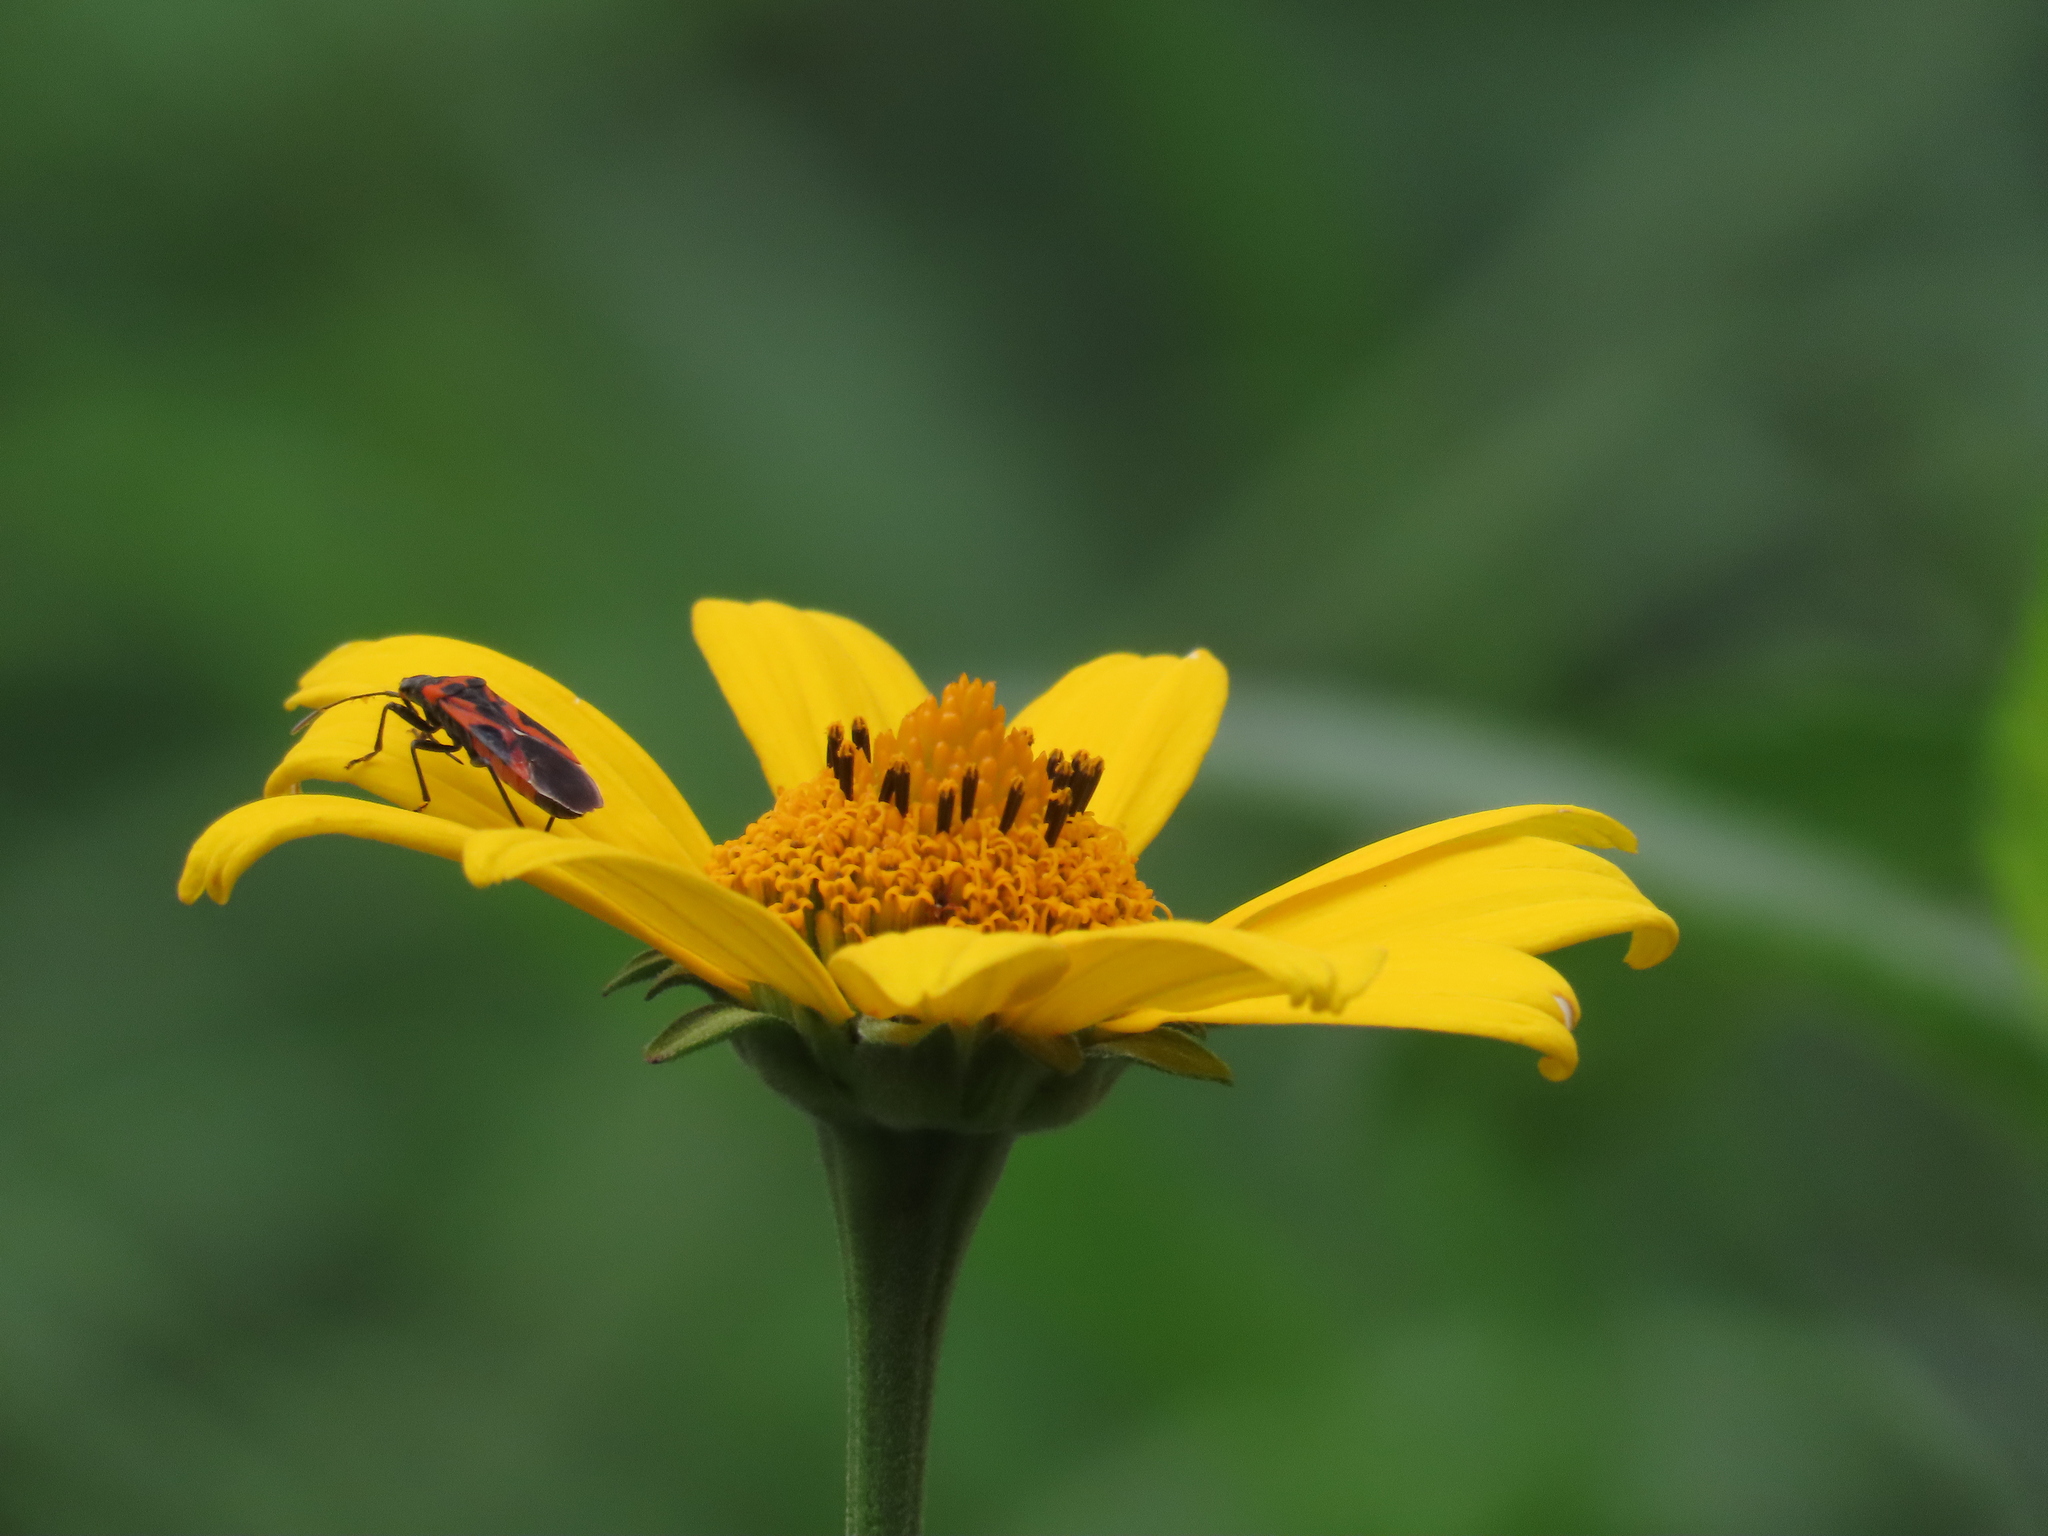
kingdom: Animalia
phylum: Arthropoda
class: Insecta
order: Hemiptera
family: Lygaeidae
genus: Lygaeus
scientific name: Lygaeus turcicus
